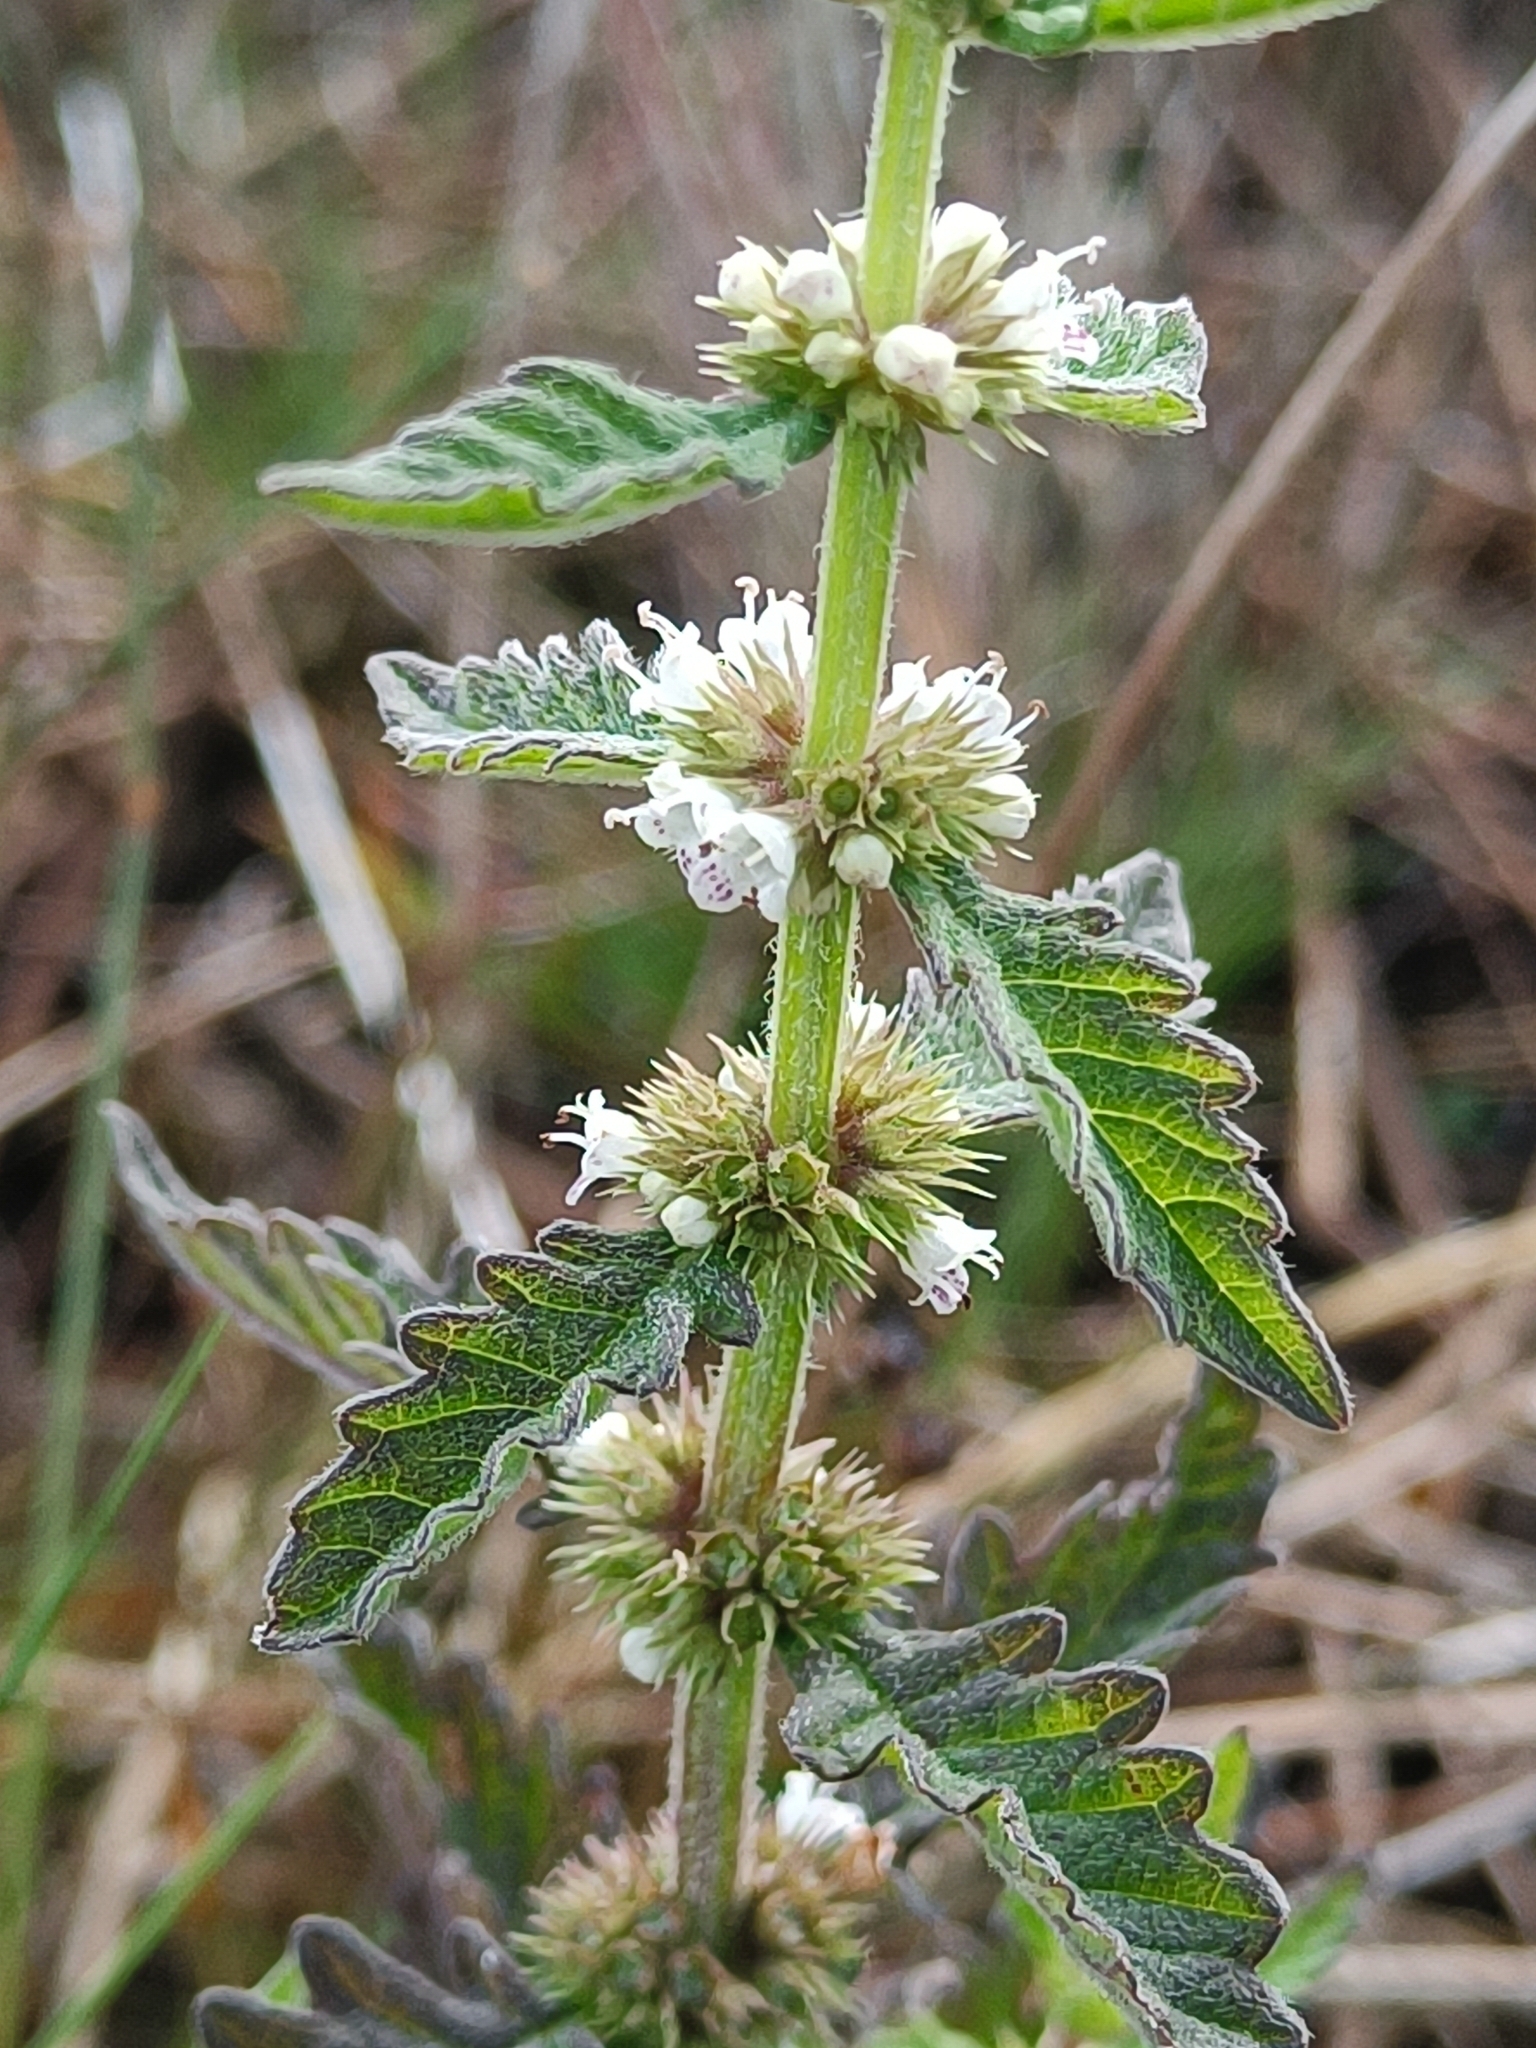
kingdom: Plantae
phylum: Tracheophyta
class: Magnoliopsida
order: Lamiales
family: Lamiaceae
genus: Lycopus
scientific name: Lycopus europaeus
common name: European bugleweed
